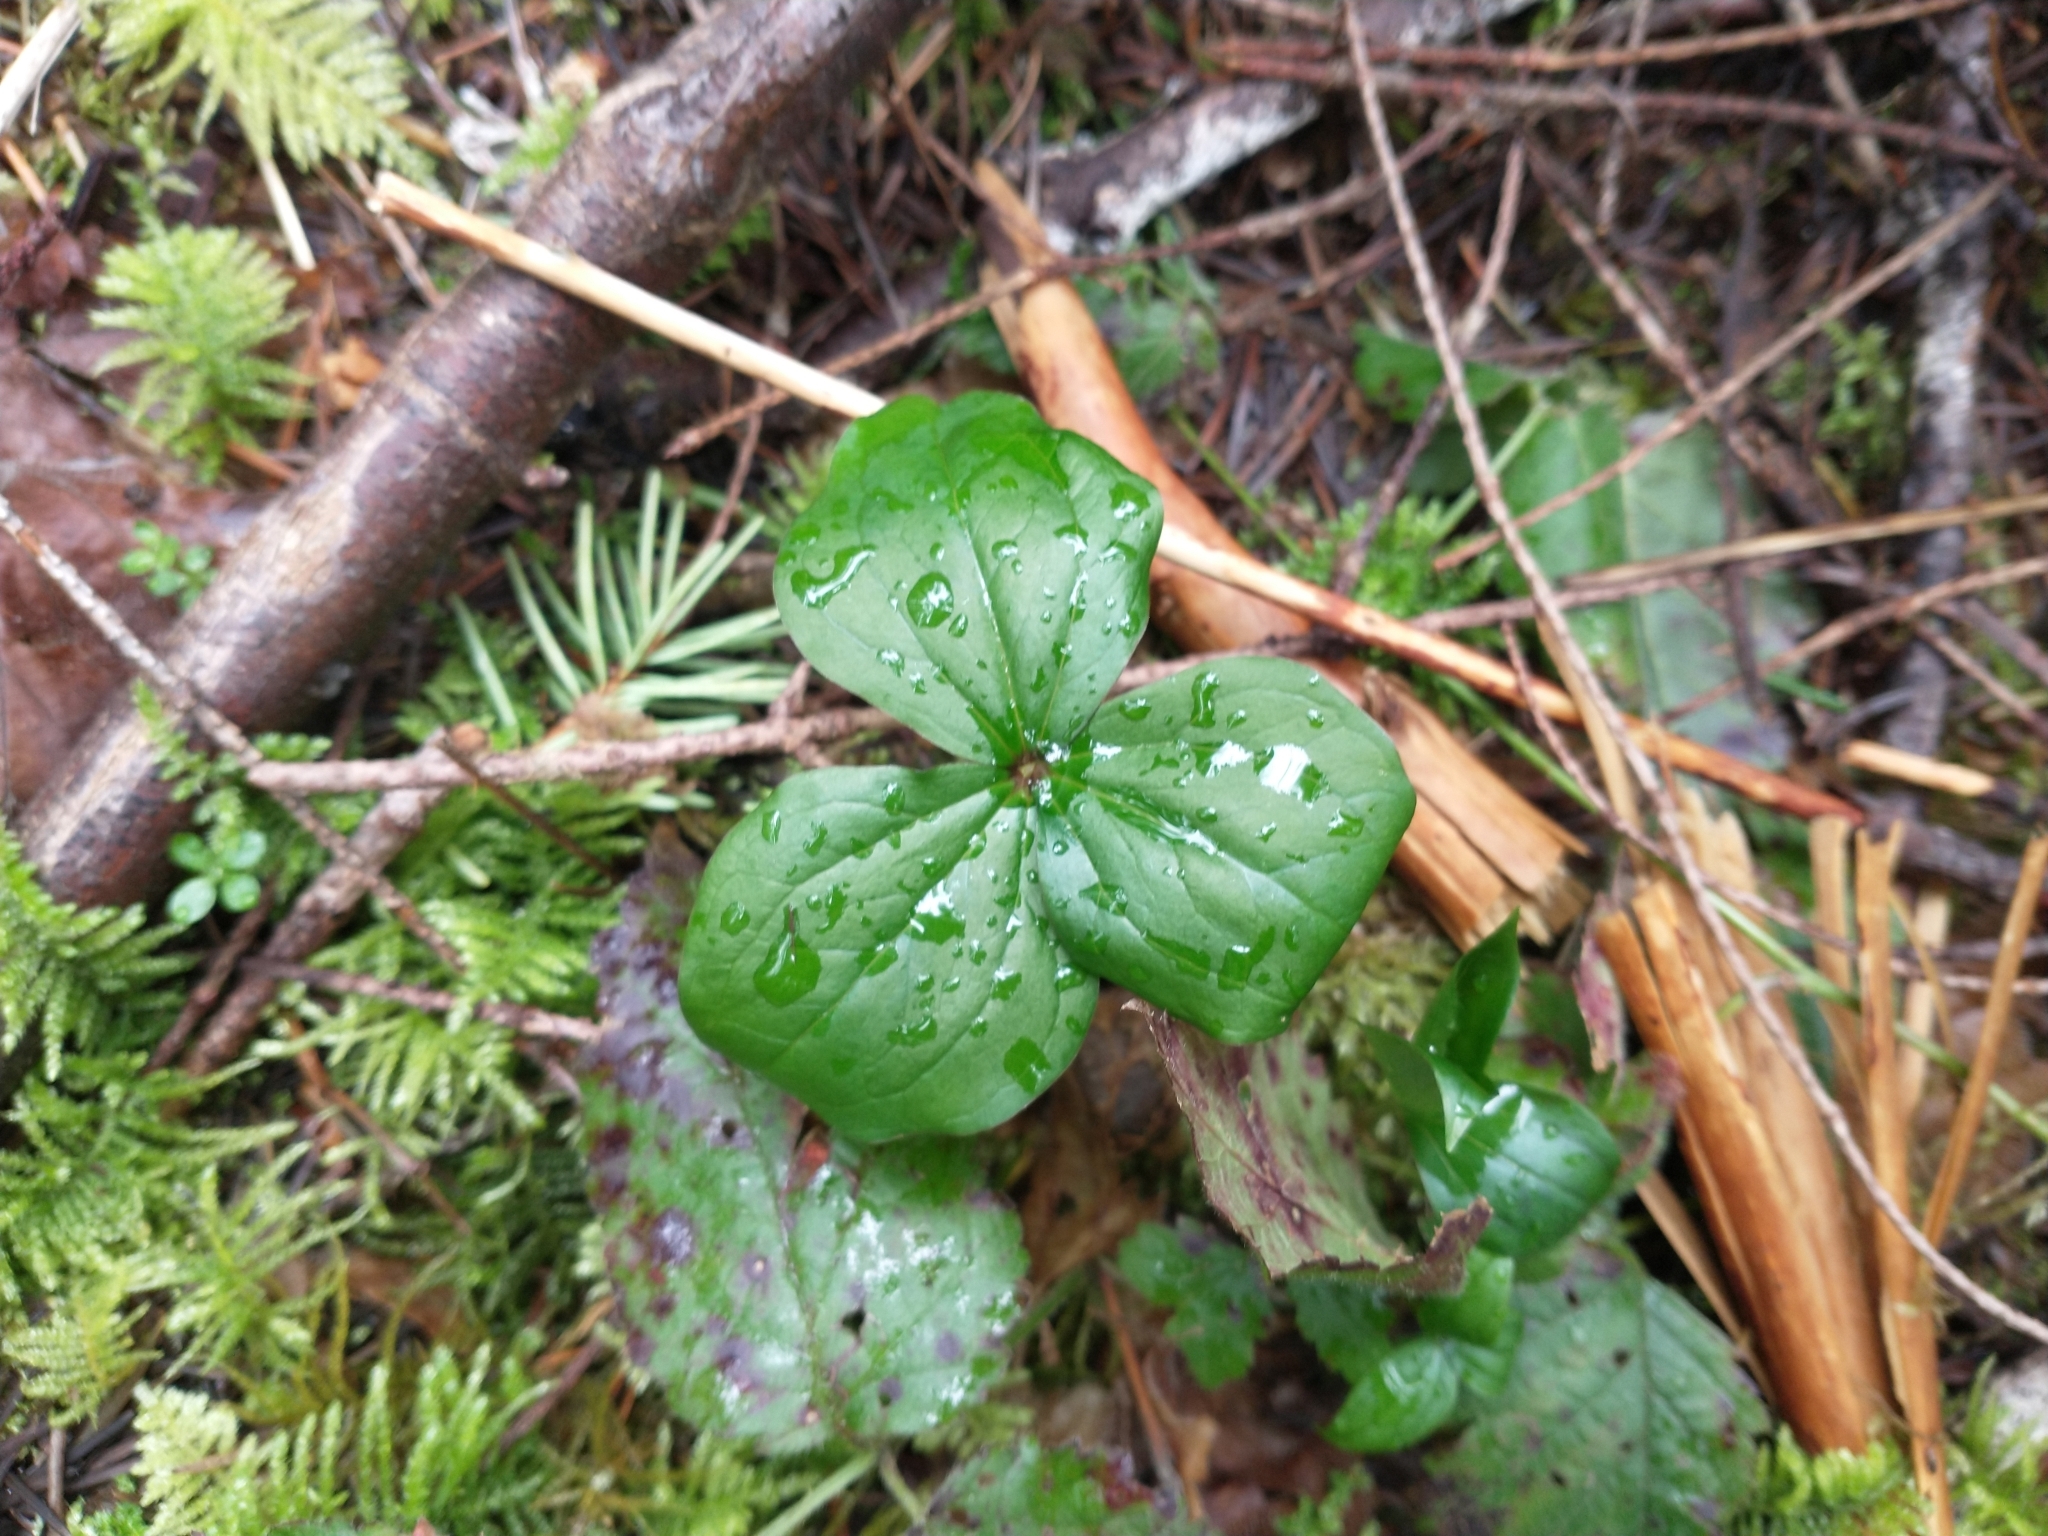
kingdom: Plantae
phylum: Tracheophyta
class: Liliopsida
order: Liliales
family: Melanthiaceae
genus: Trillium
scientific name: Trillium ovatum
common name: Pacific trillium
